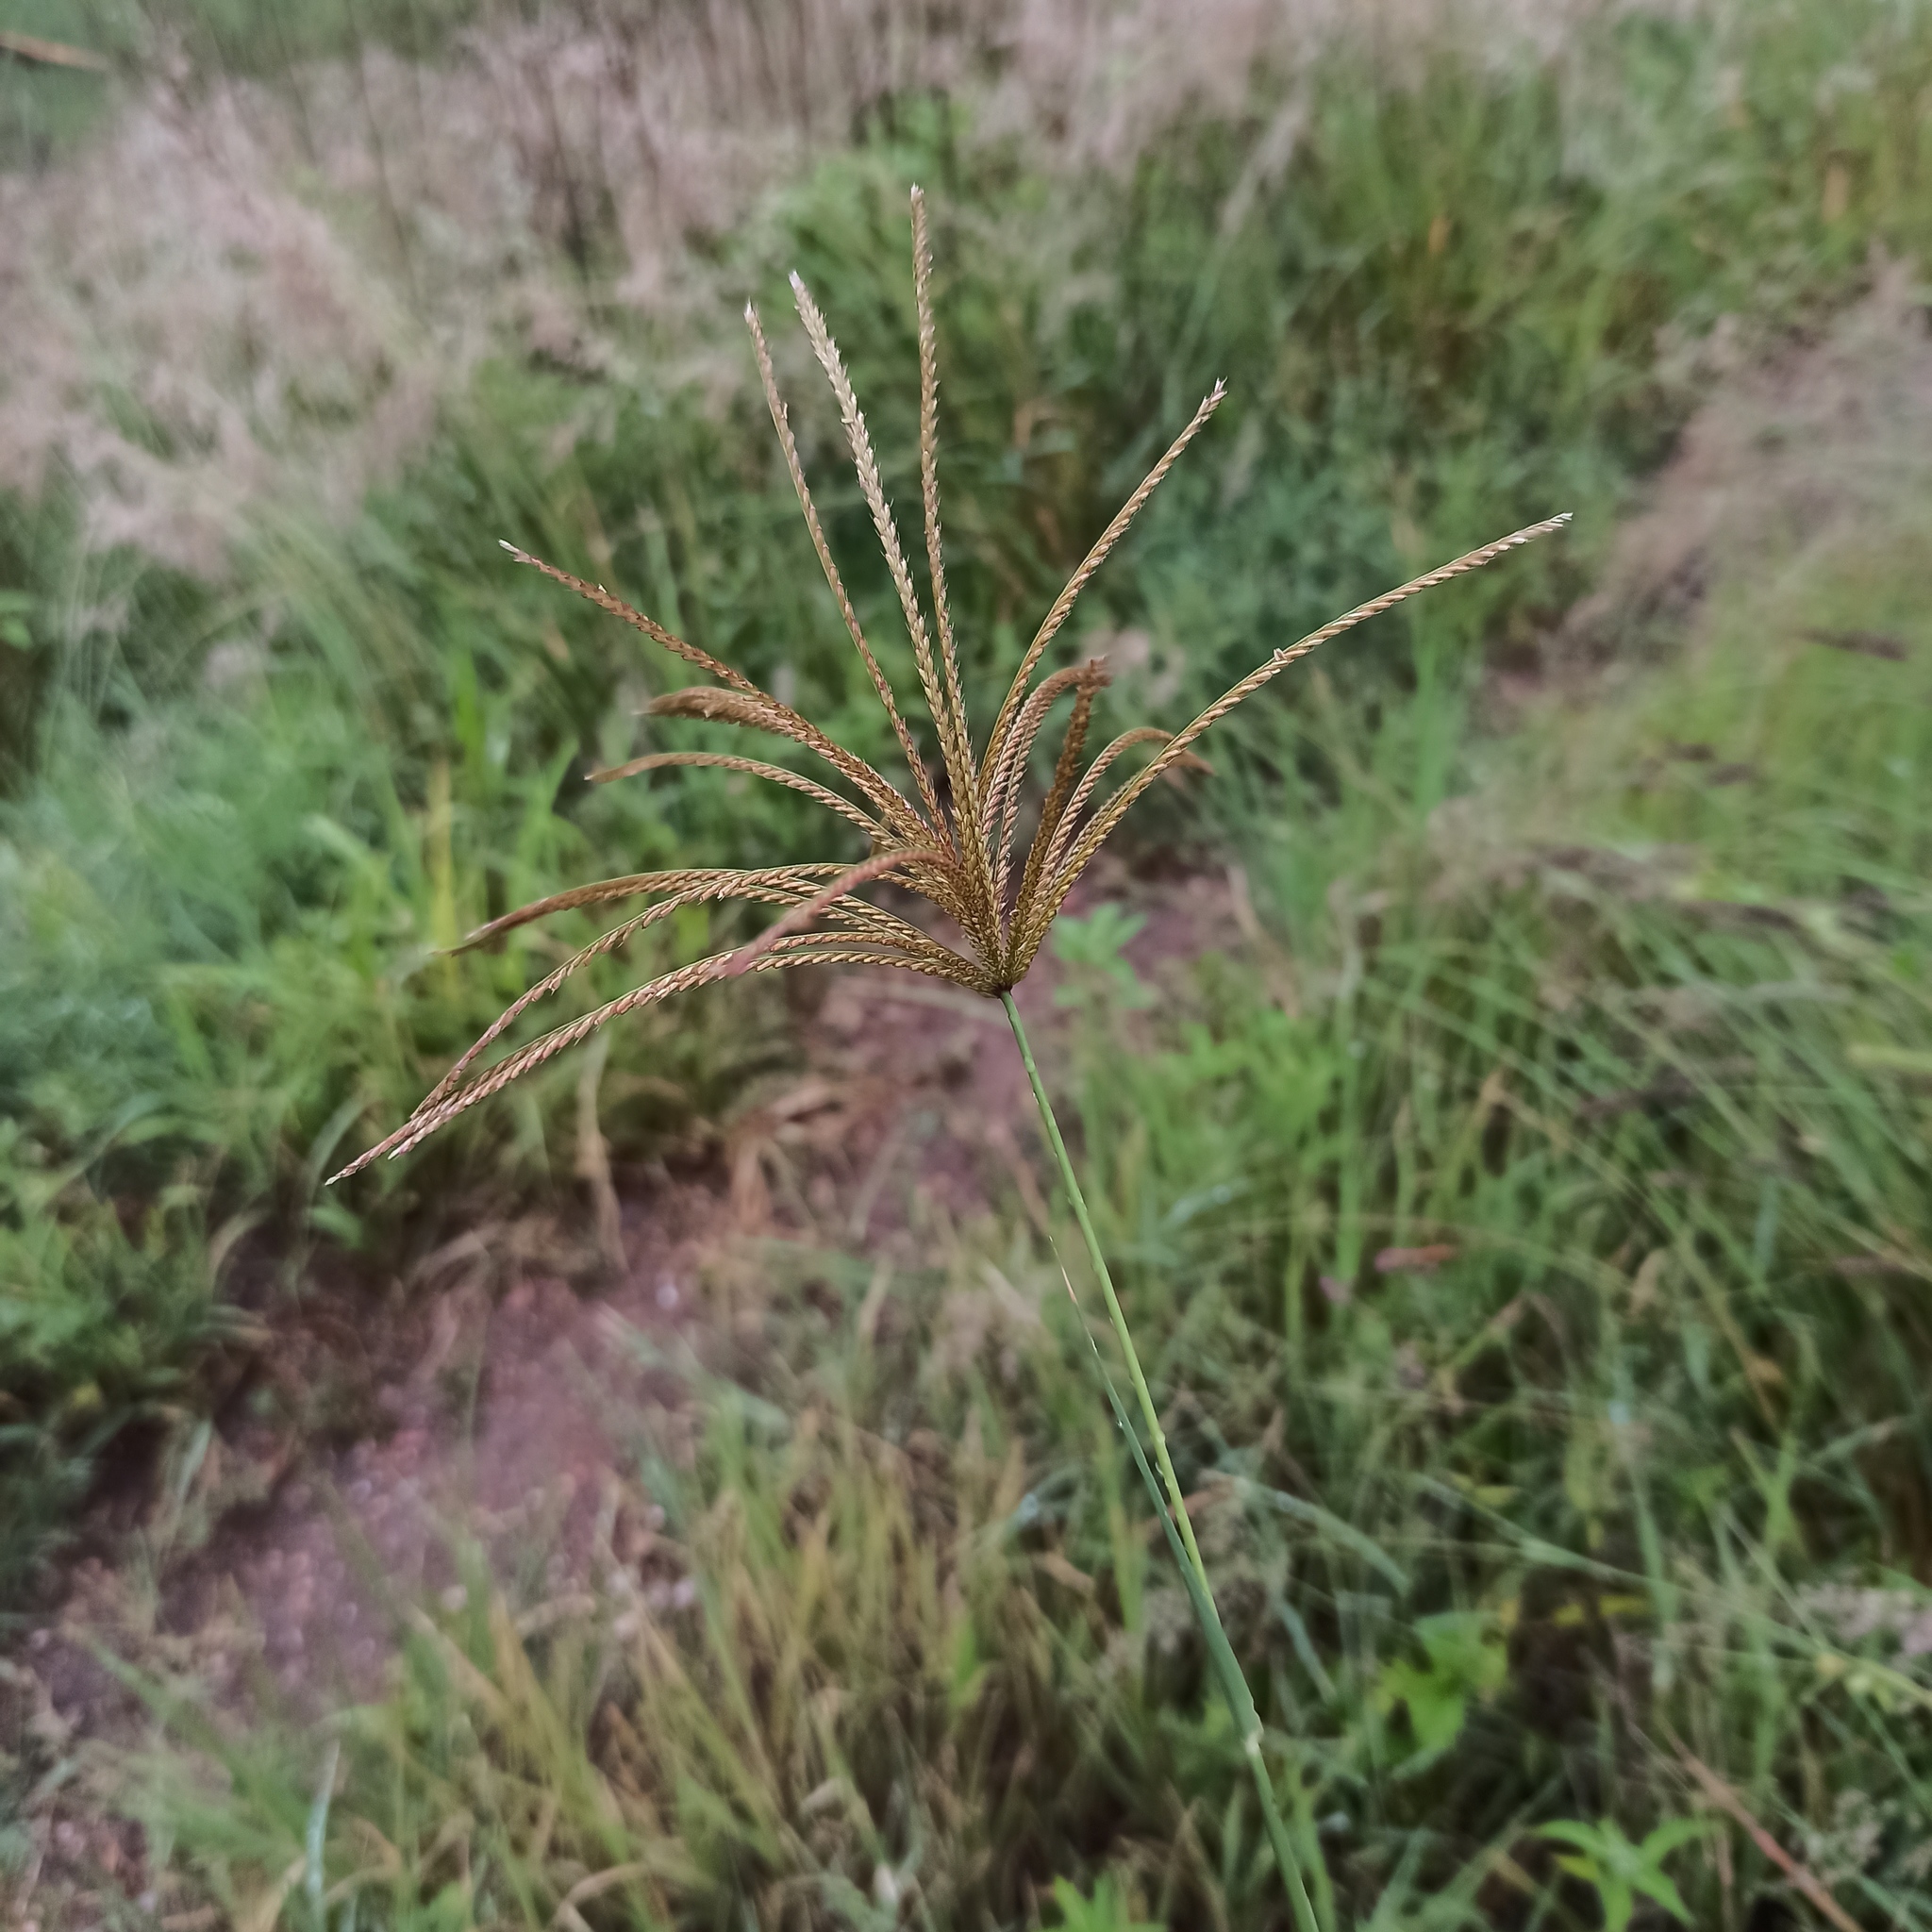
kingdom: Plantae
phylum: Tracheophyta
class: Liliopsida
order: Poales
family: Poaceae
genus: Chloris
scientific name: Chloris gayana
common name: Rhodes grass
